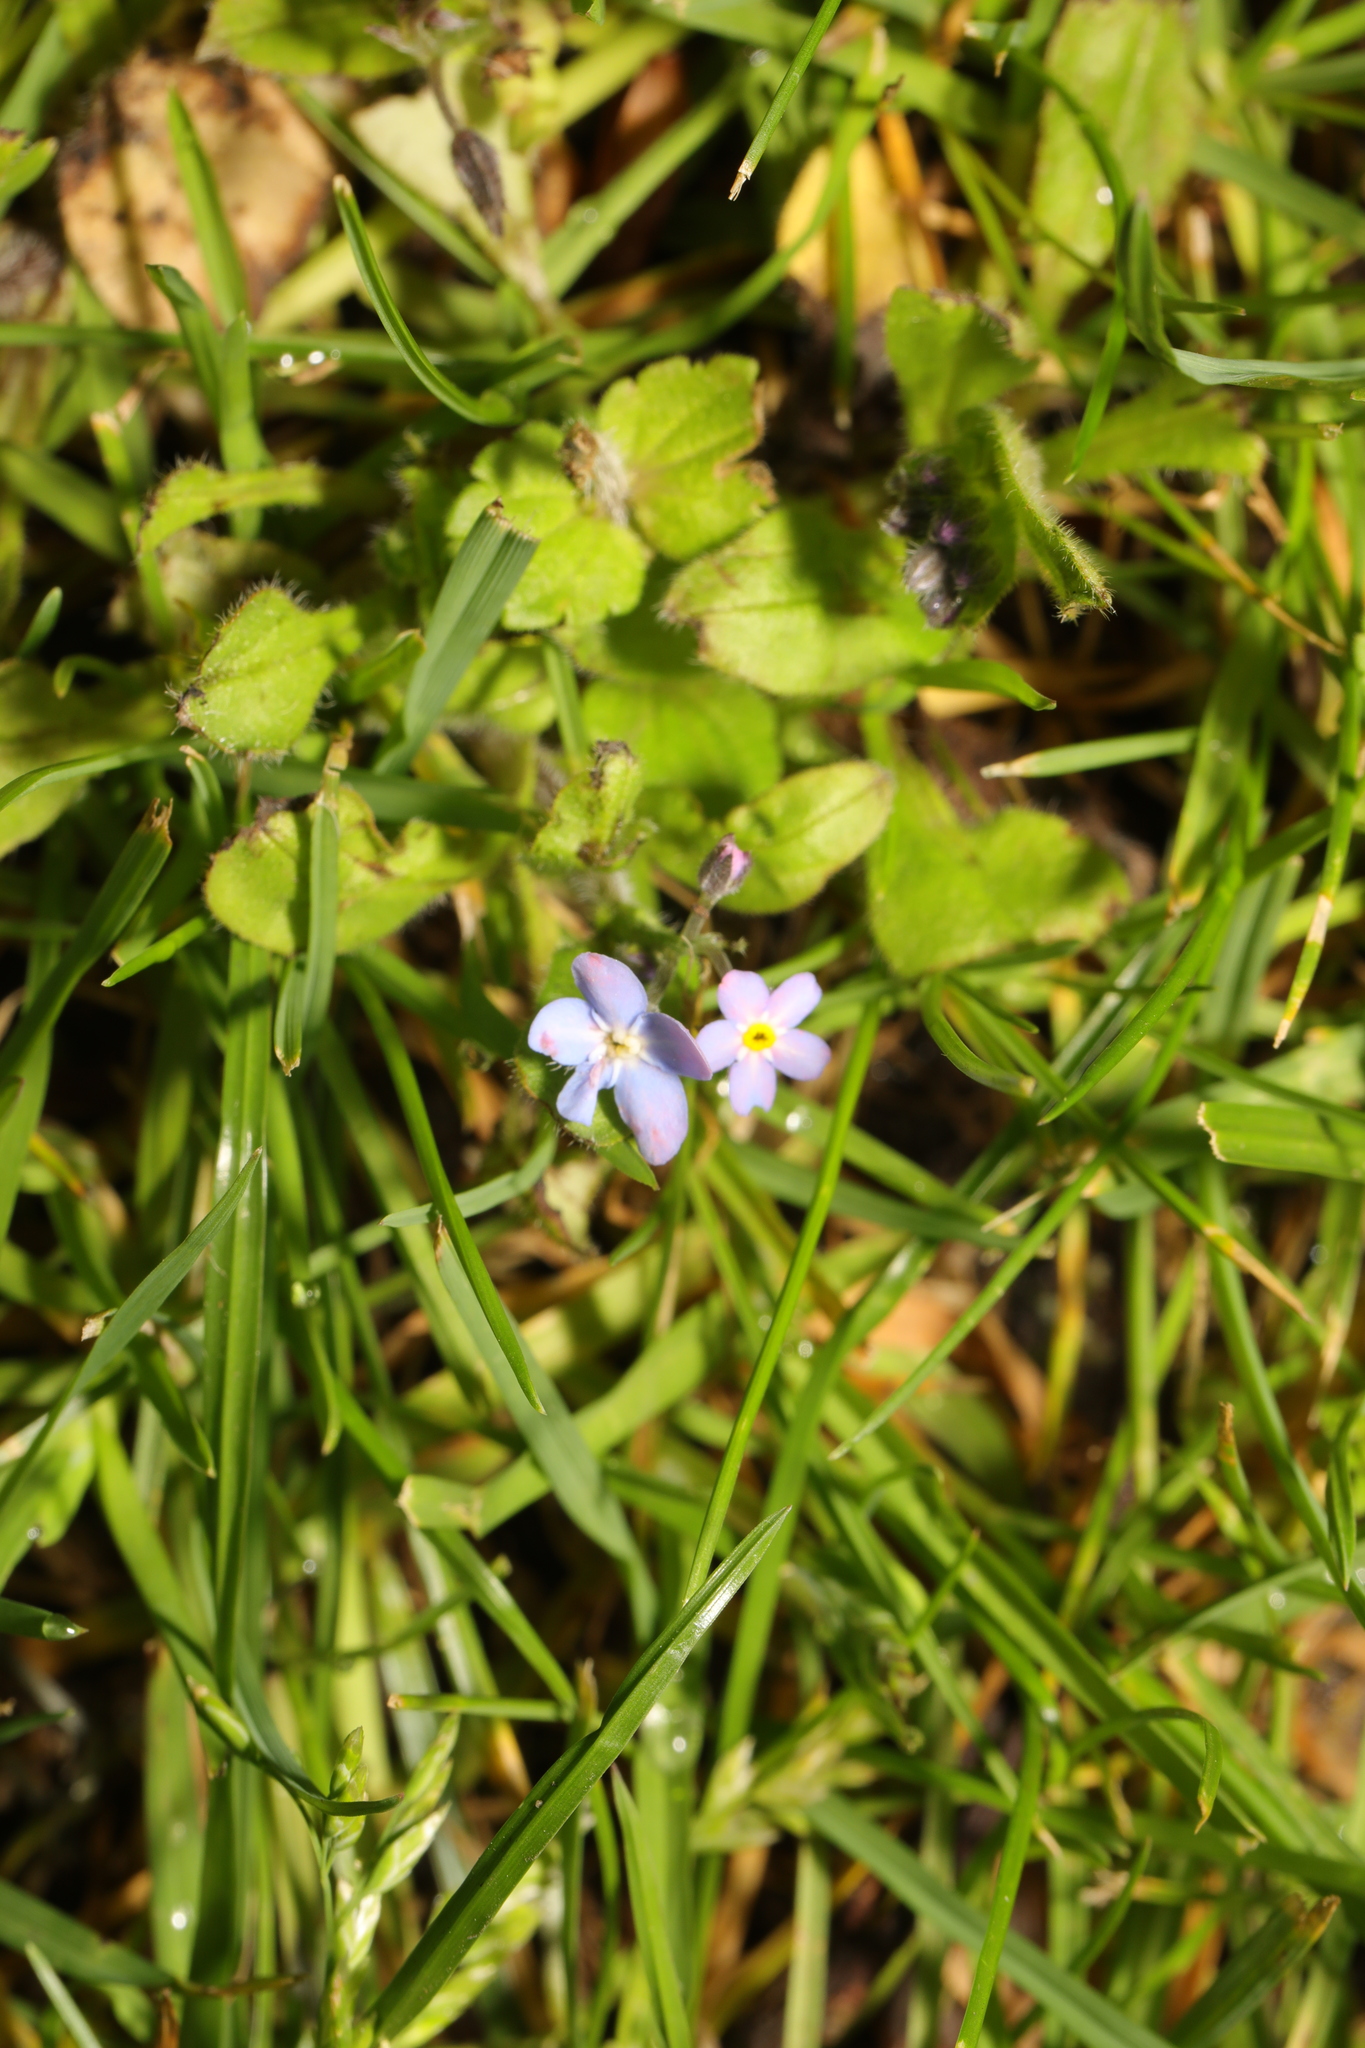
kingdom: Plantae
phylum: Tracheophyta
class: Magnoliopsida
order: Boraginales
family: Boraginaceae
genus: Myosotis
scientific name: Myosotis sylvatica
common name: Wood forget-me-not
